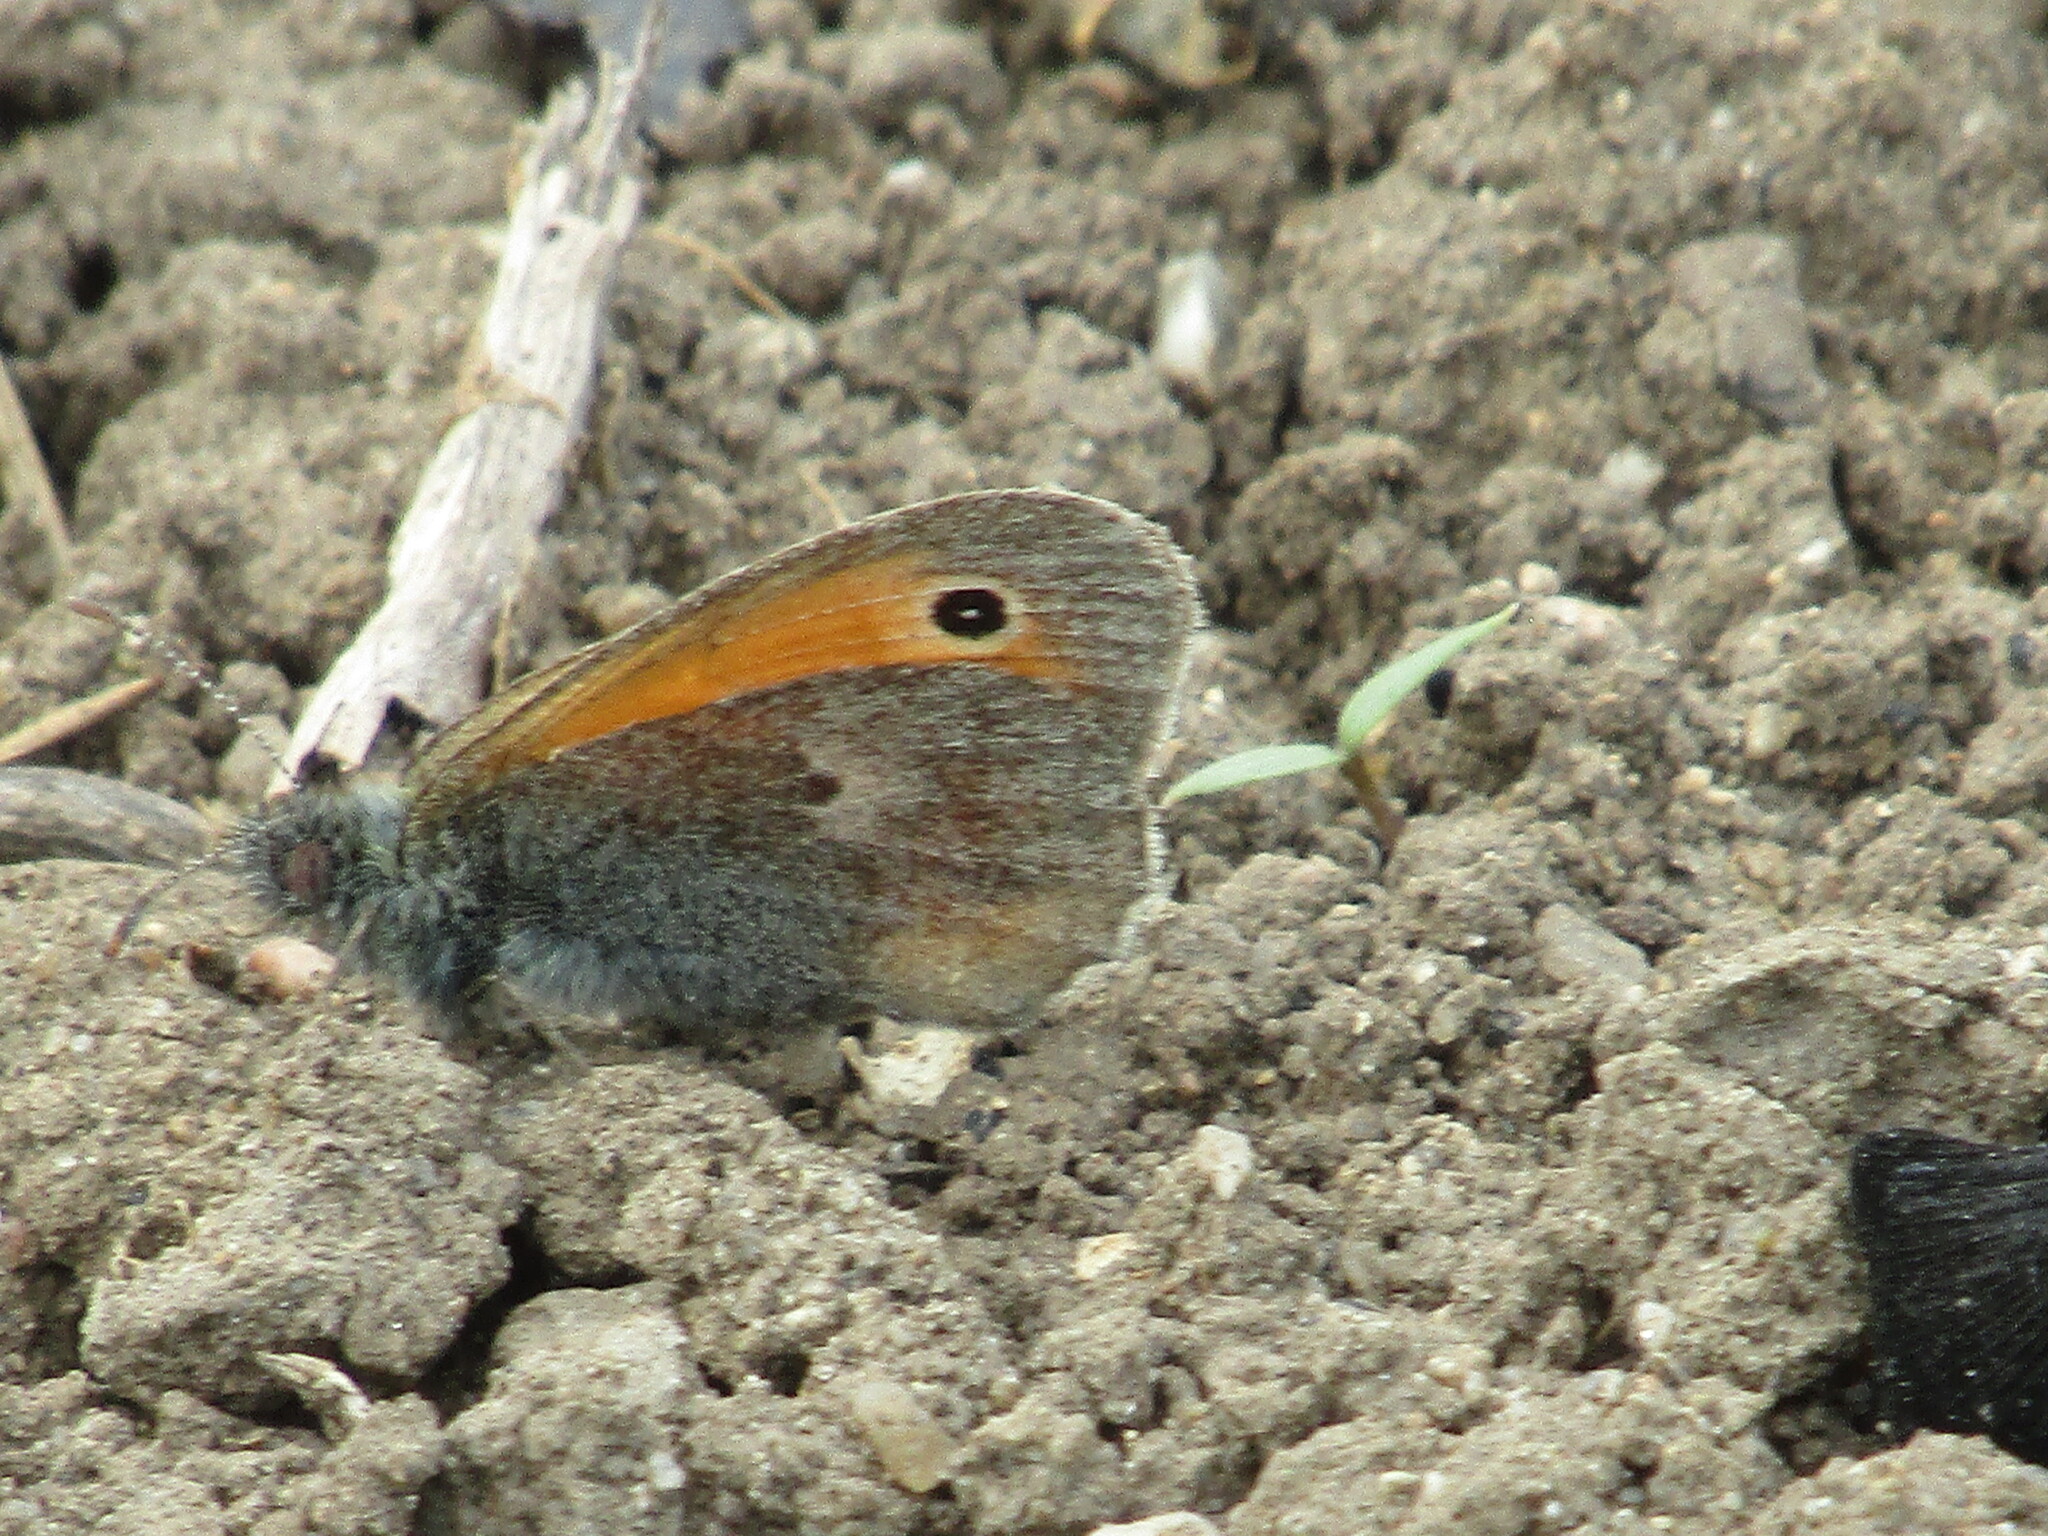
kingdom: Animalia
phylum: Arthropoda
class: Insecta
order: Lepidoptera
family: Nymphalidae
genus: Coenonympha
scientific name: Coenonympha pamphilus
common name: Small heath
